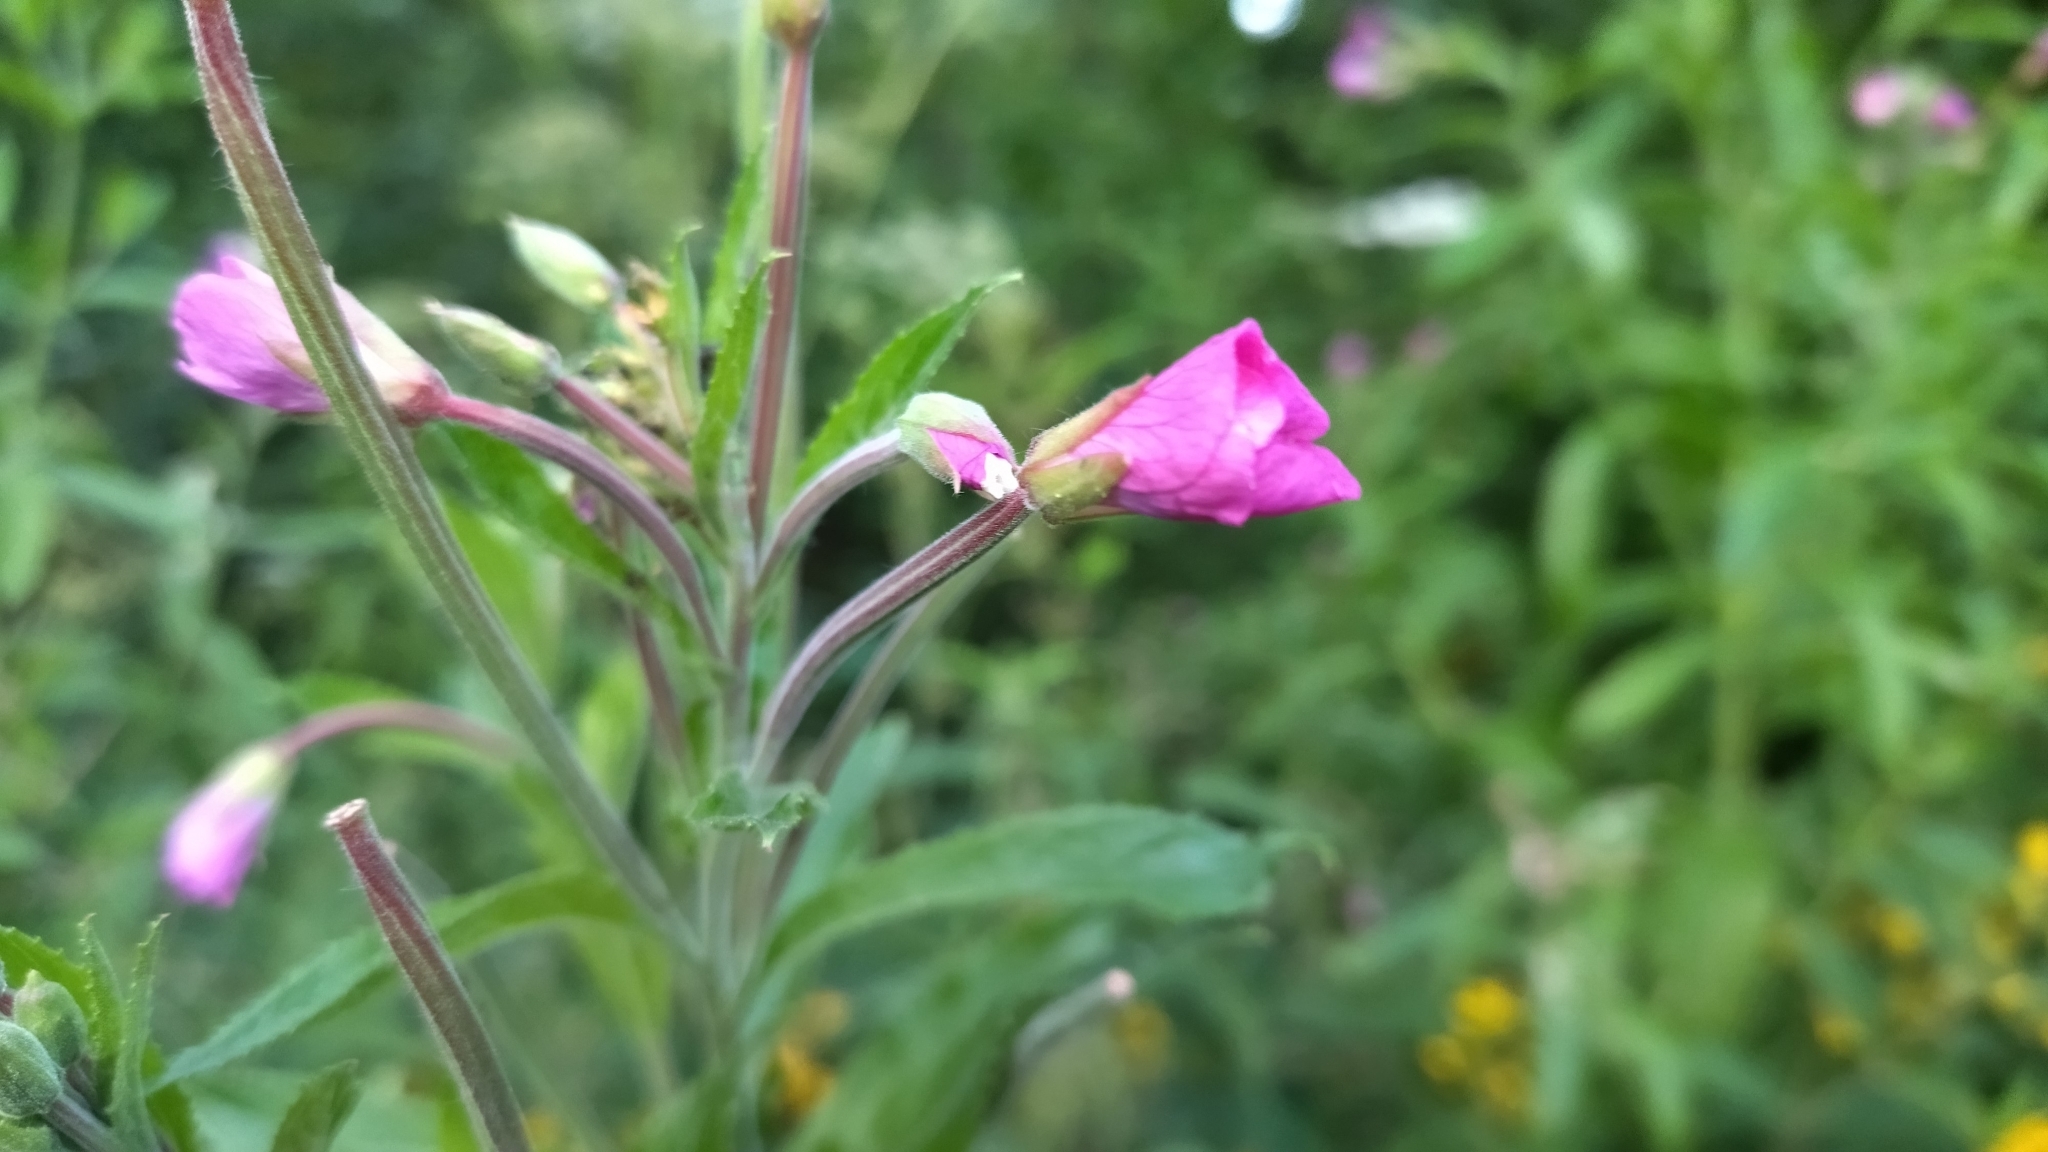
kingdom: Plantae
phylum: Tracheophyta
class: Magnoliopsida
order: Myrtales
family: Onagraceae
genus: Epilobium
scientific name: Epilobium hirsutum
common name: Great willowherb
